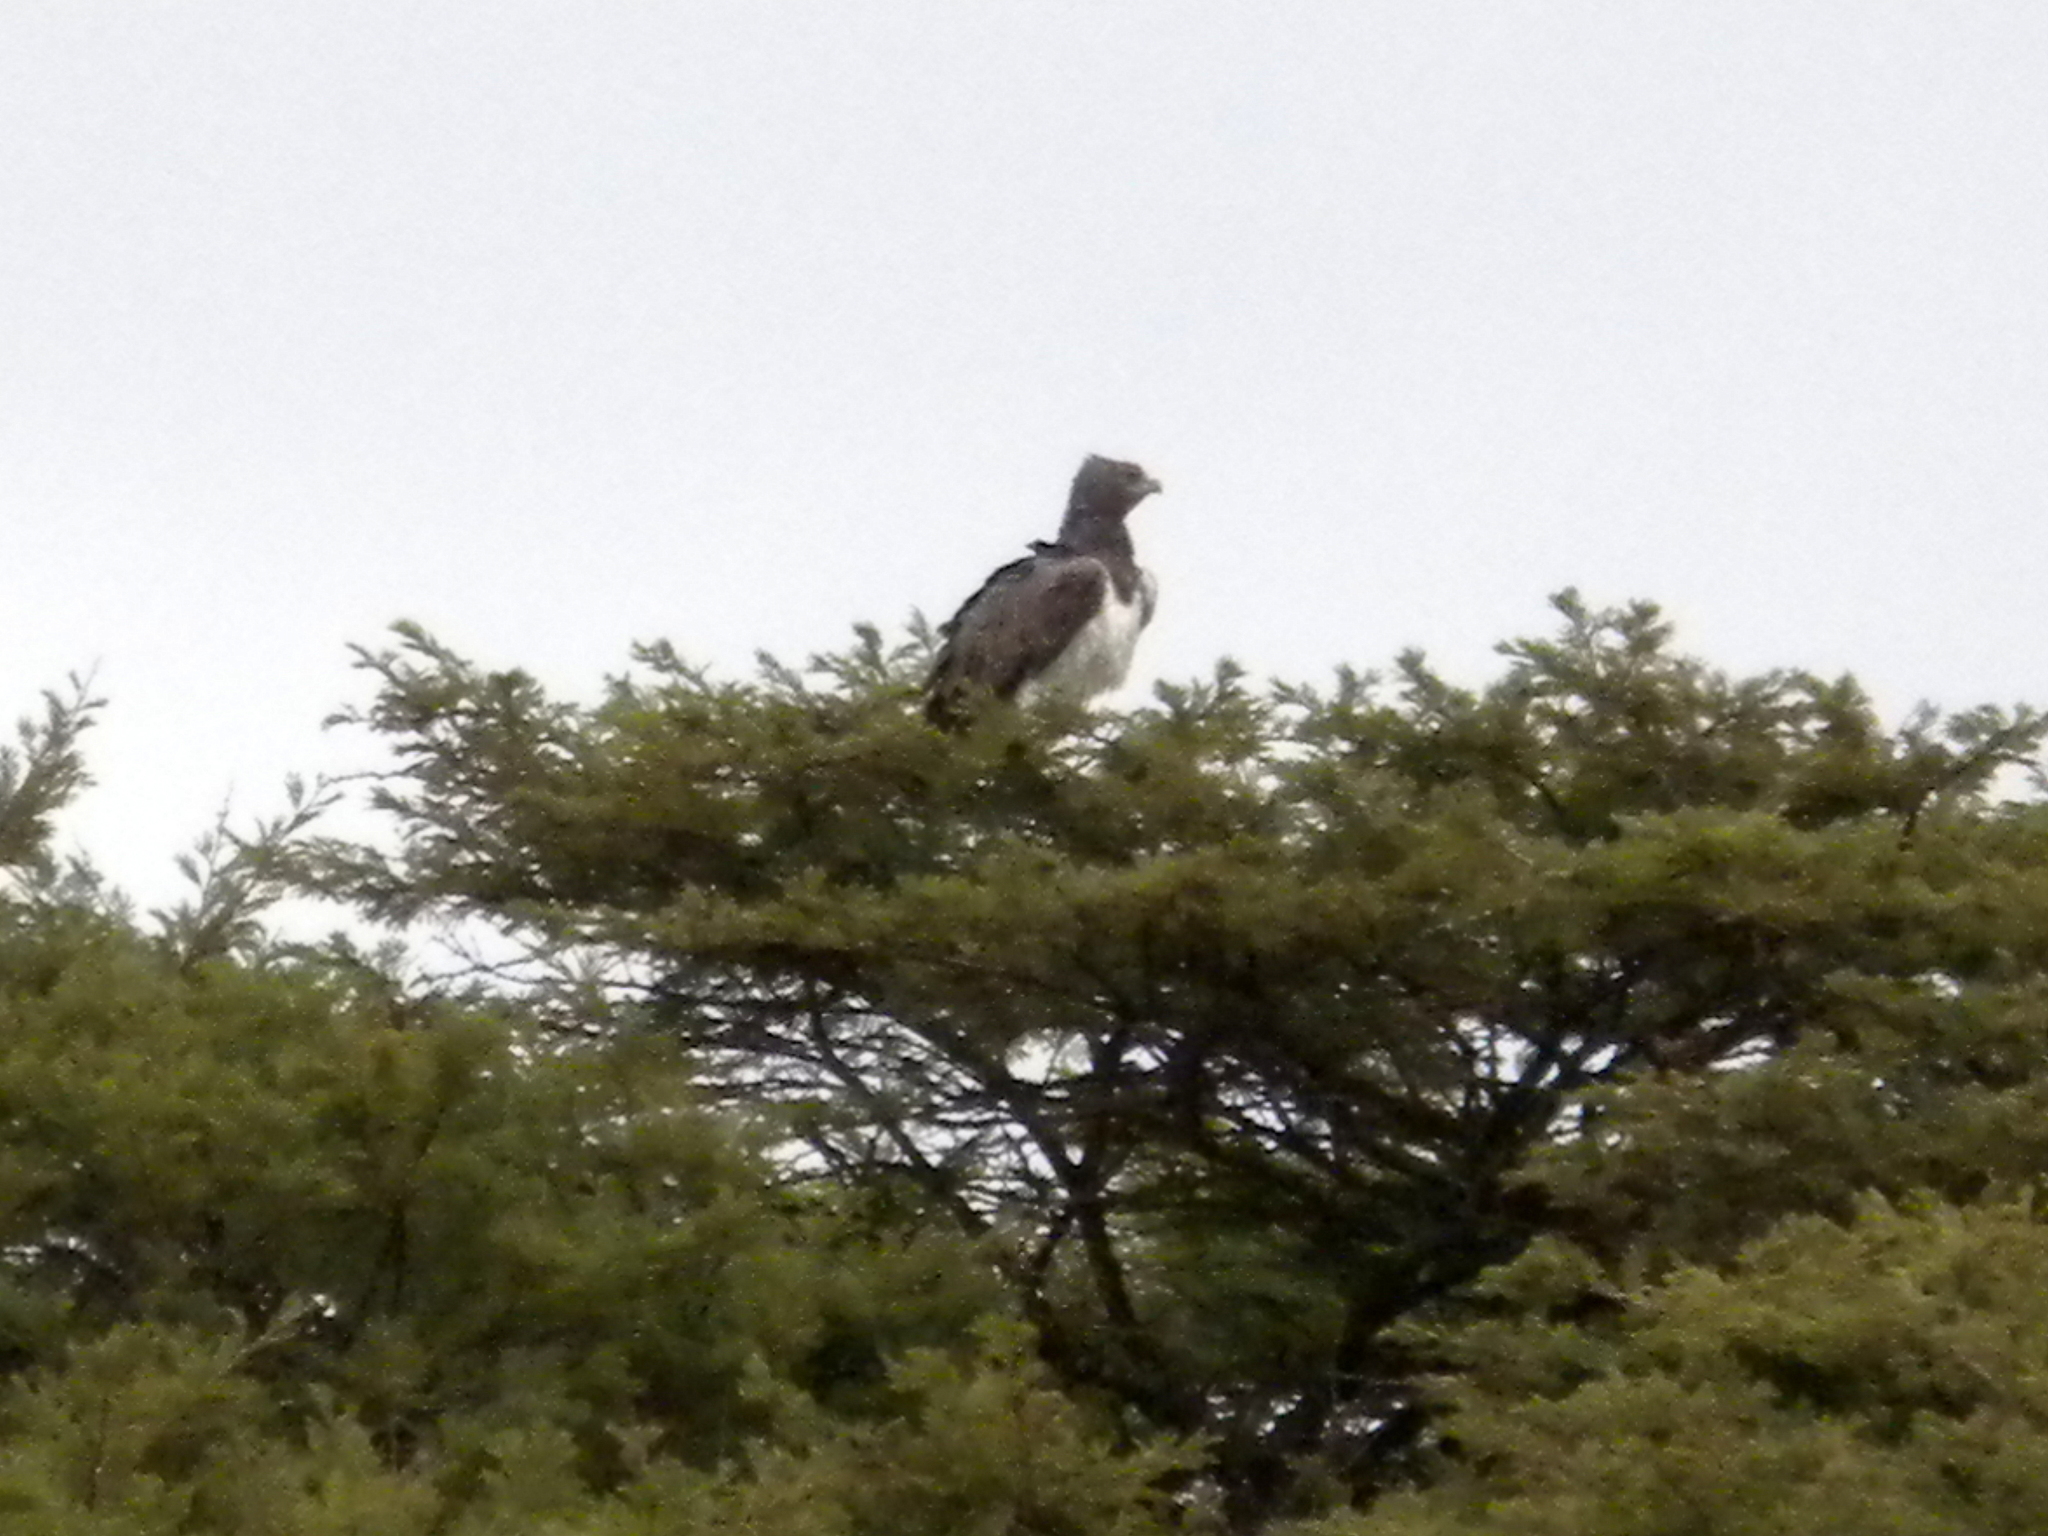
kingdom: Animalia
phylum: Chordata
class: Aves
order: Accipitriformes
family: Accipitridae
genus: Polemaetus
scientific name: Polemaetus bellicosus
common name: Martial eagle
